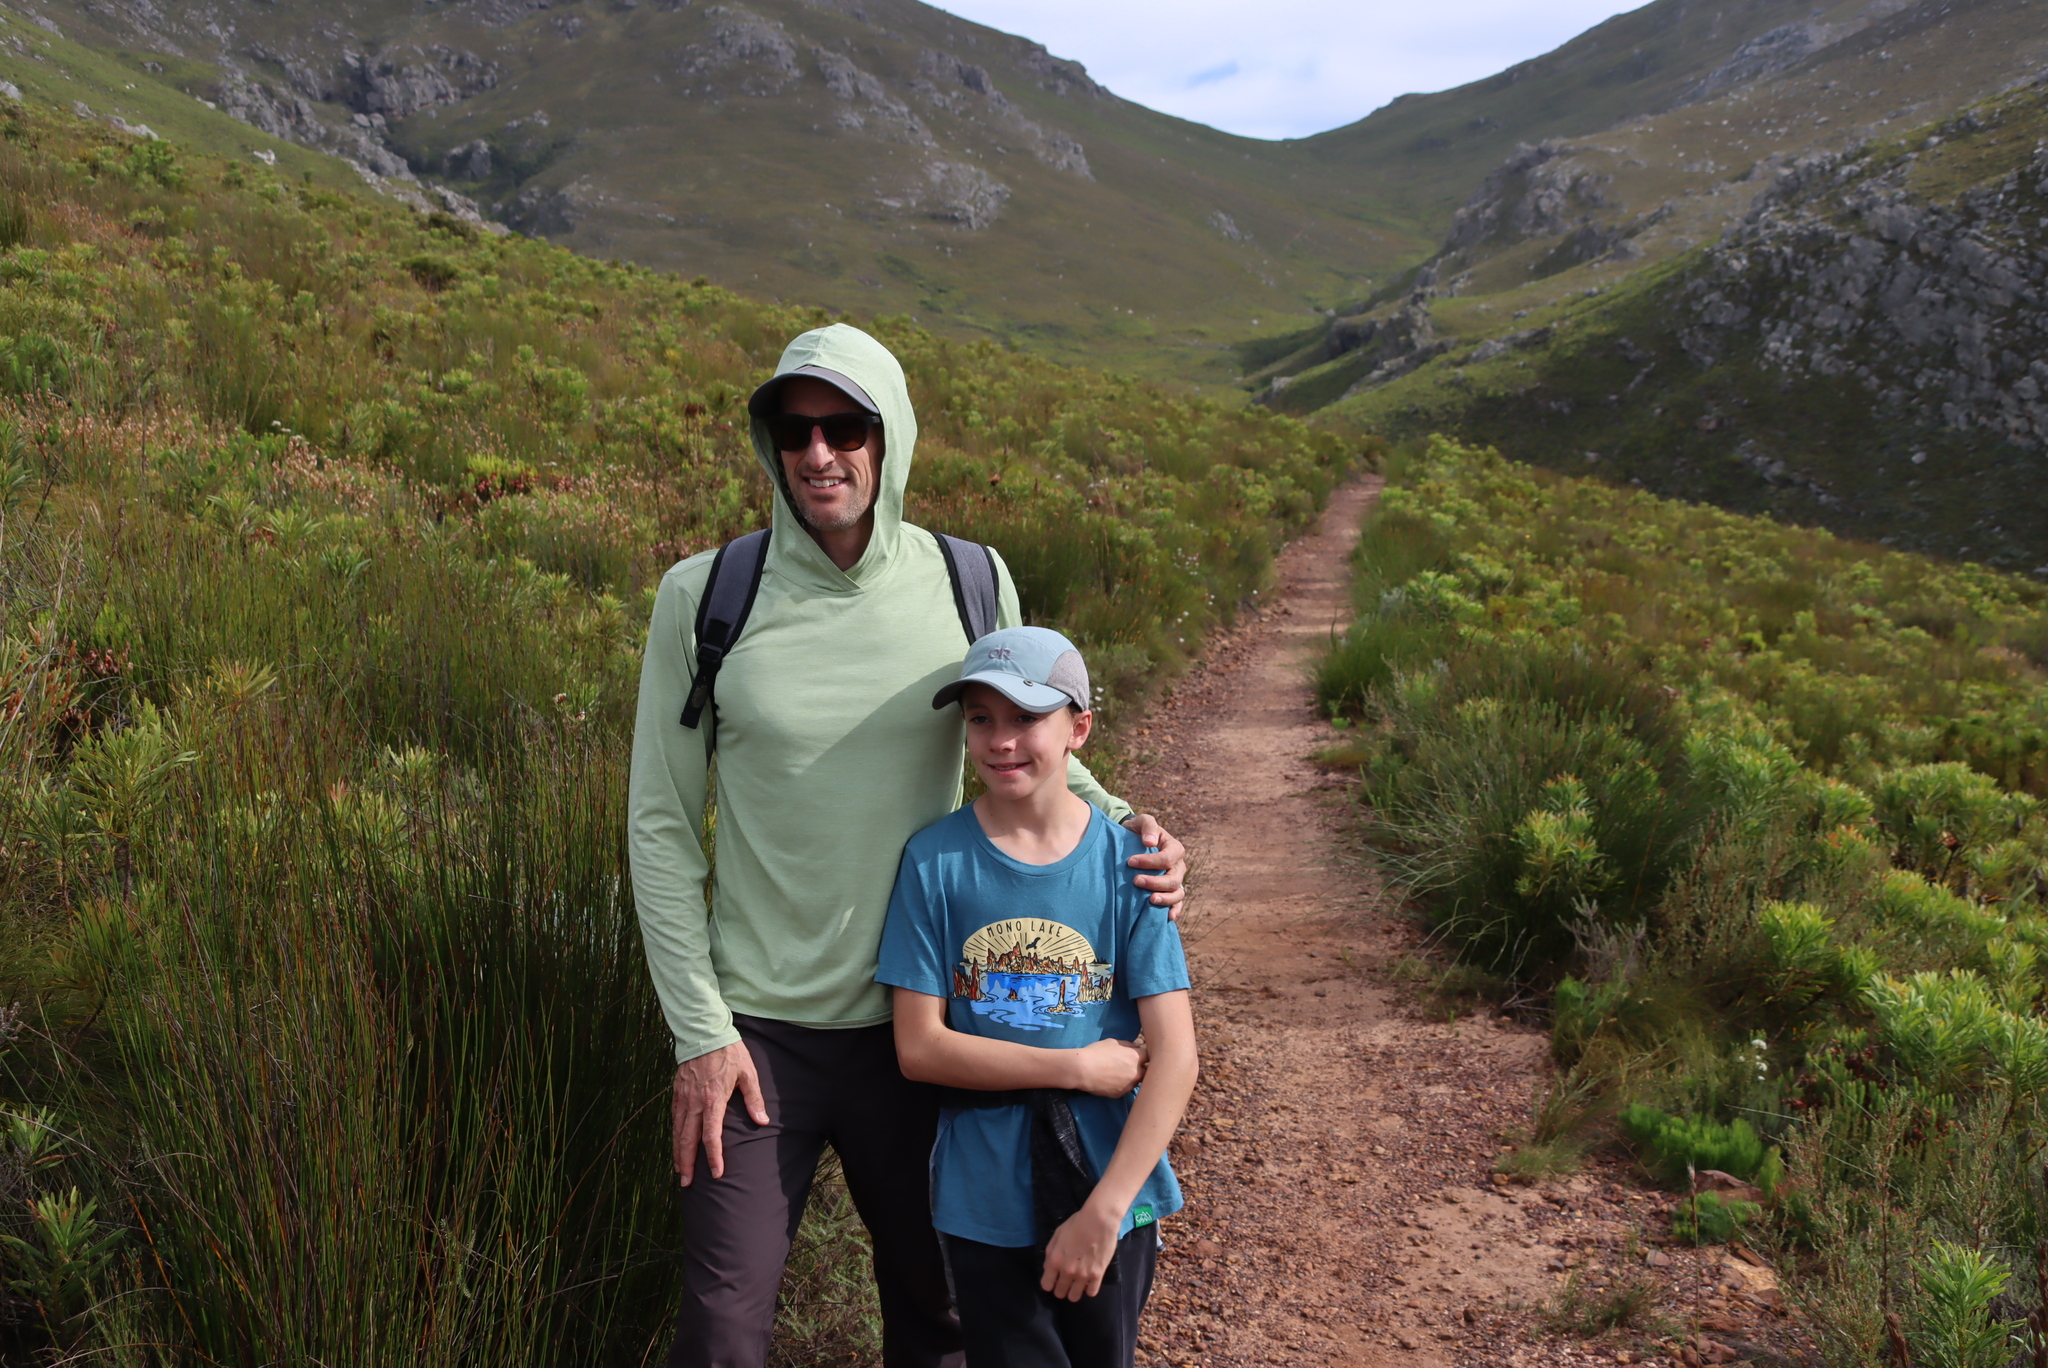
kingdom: Plantae
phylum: Tracheophyta
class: Magnoliopsida
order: Proteales
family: Proteaceae
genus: Protea
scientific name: Protea repens
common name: Sugarbush
